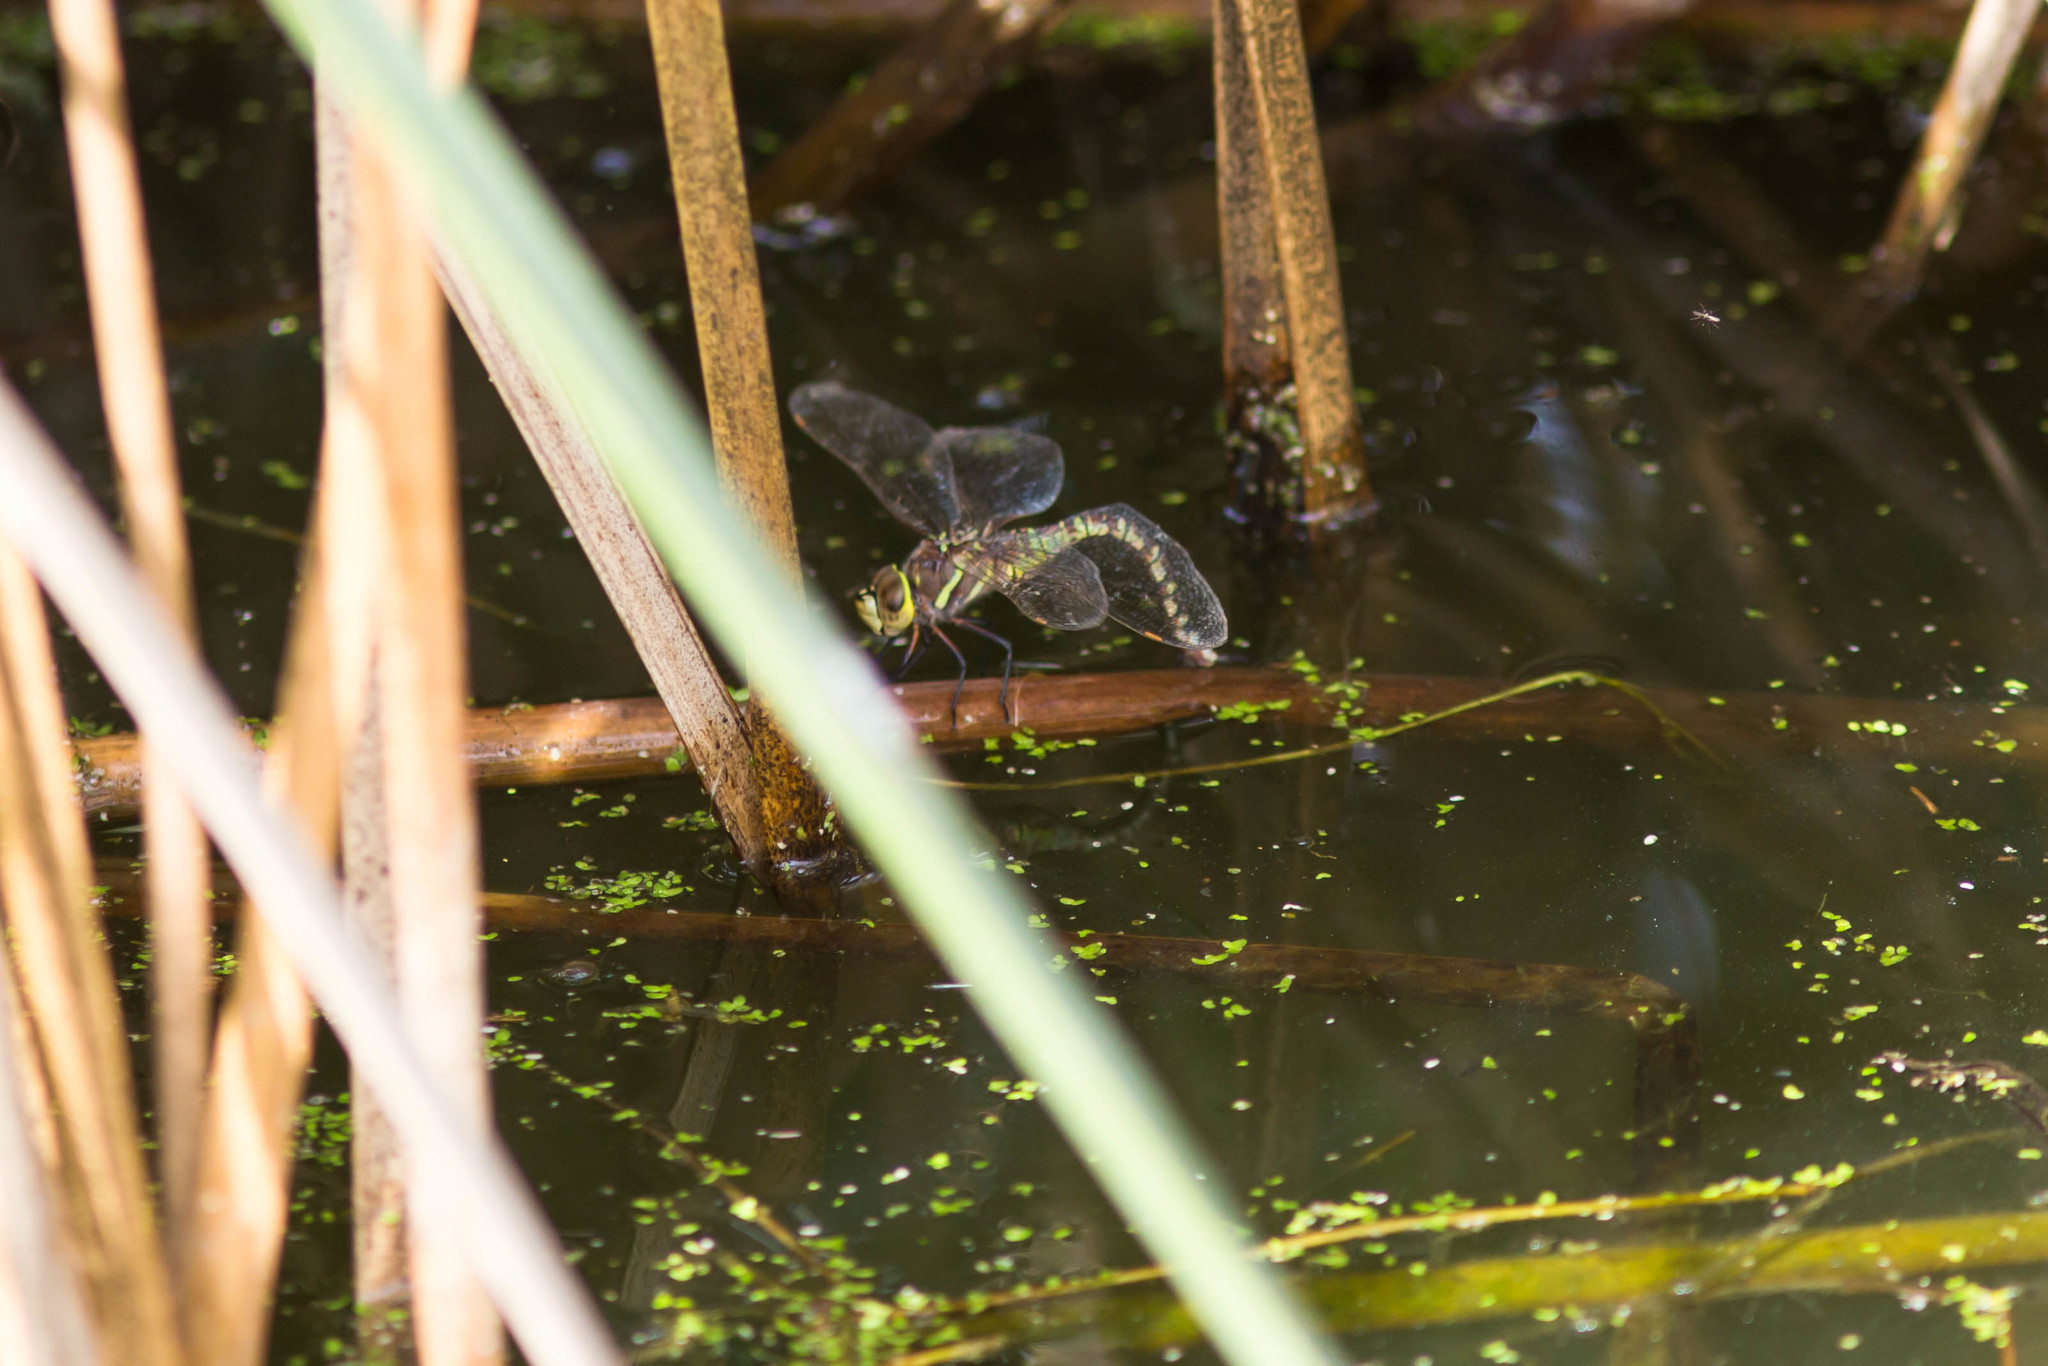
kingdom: Animalia
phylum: Arthropoda
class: Insecta
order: Odonata
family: Aeshnidae
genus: Rhionaeschna
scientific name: Rhionaeschna multicolor
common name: Blue-eyed darner
